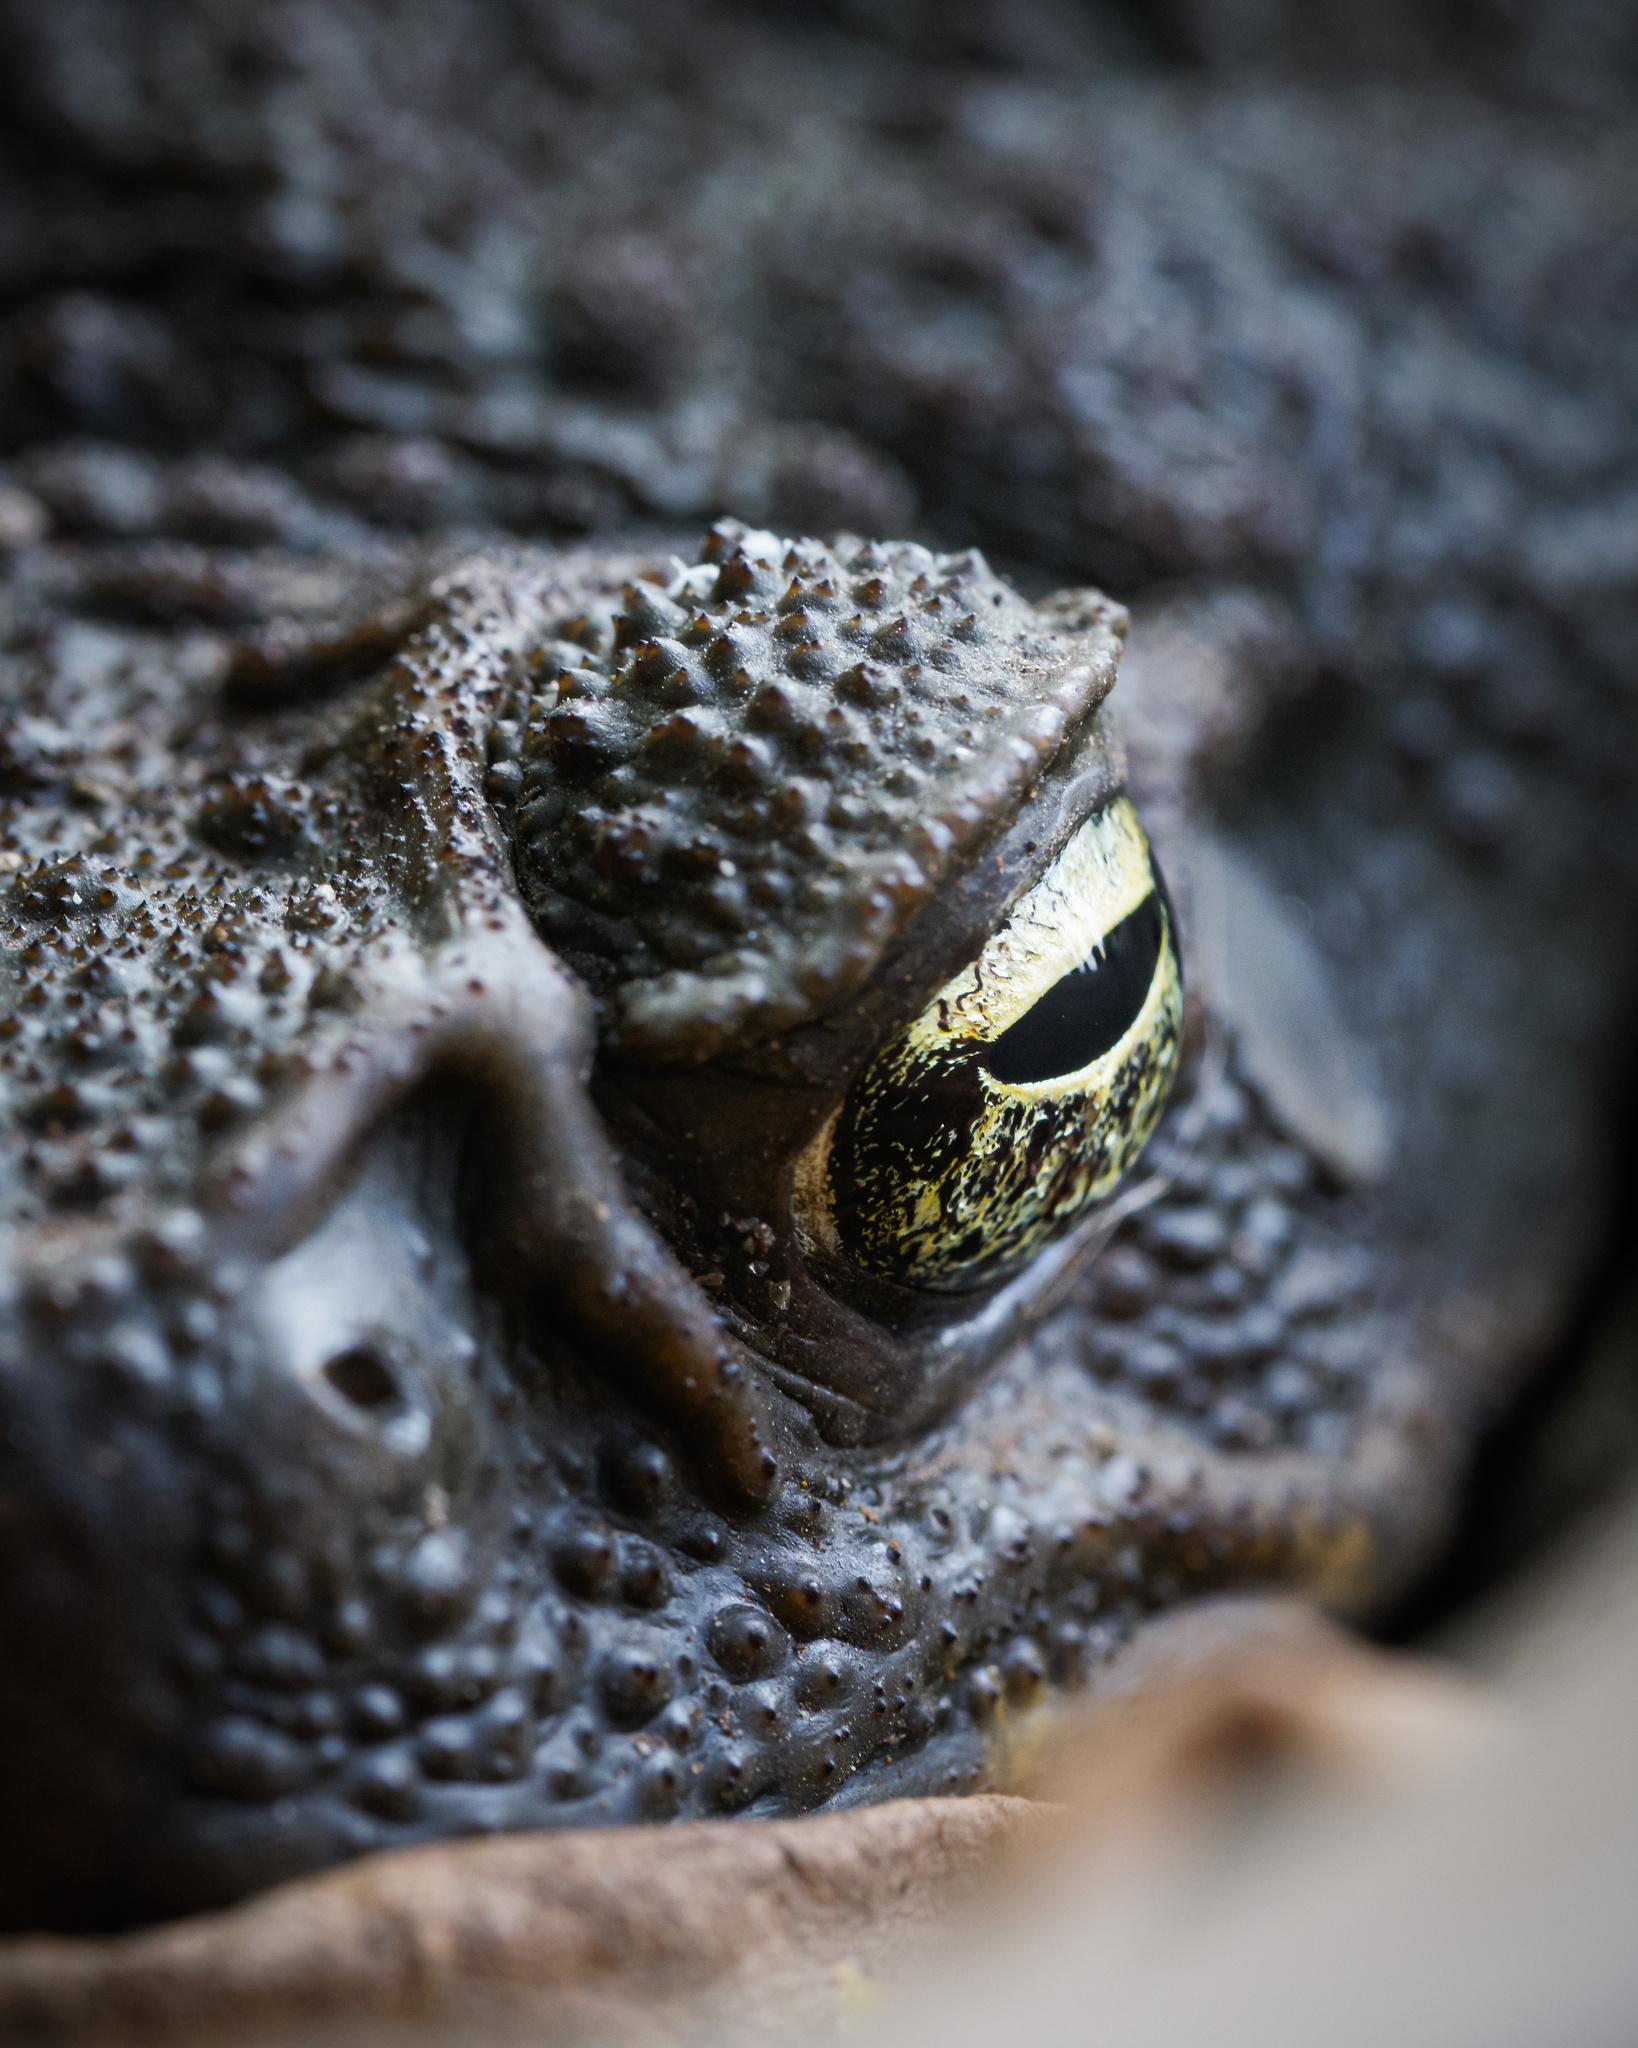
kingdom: Animalia
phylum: Chordata
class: Amphibia
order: Anura
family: Bufonidae
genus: Rhinella
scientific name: Rhinella marina
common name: Cane toad
